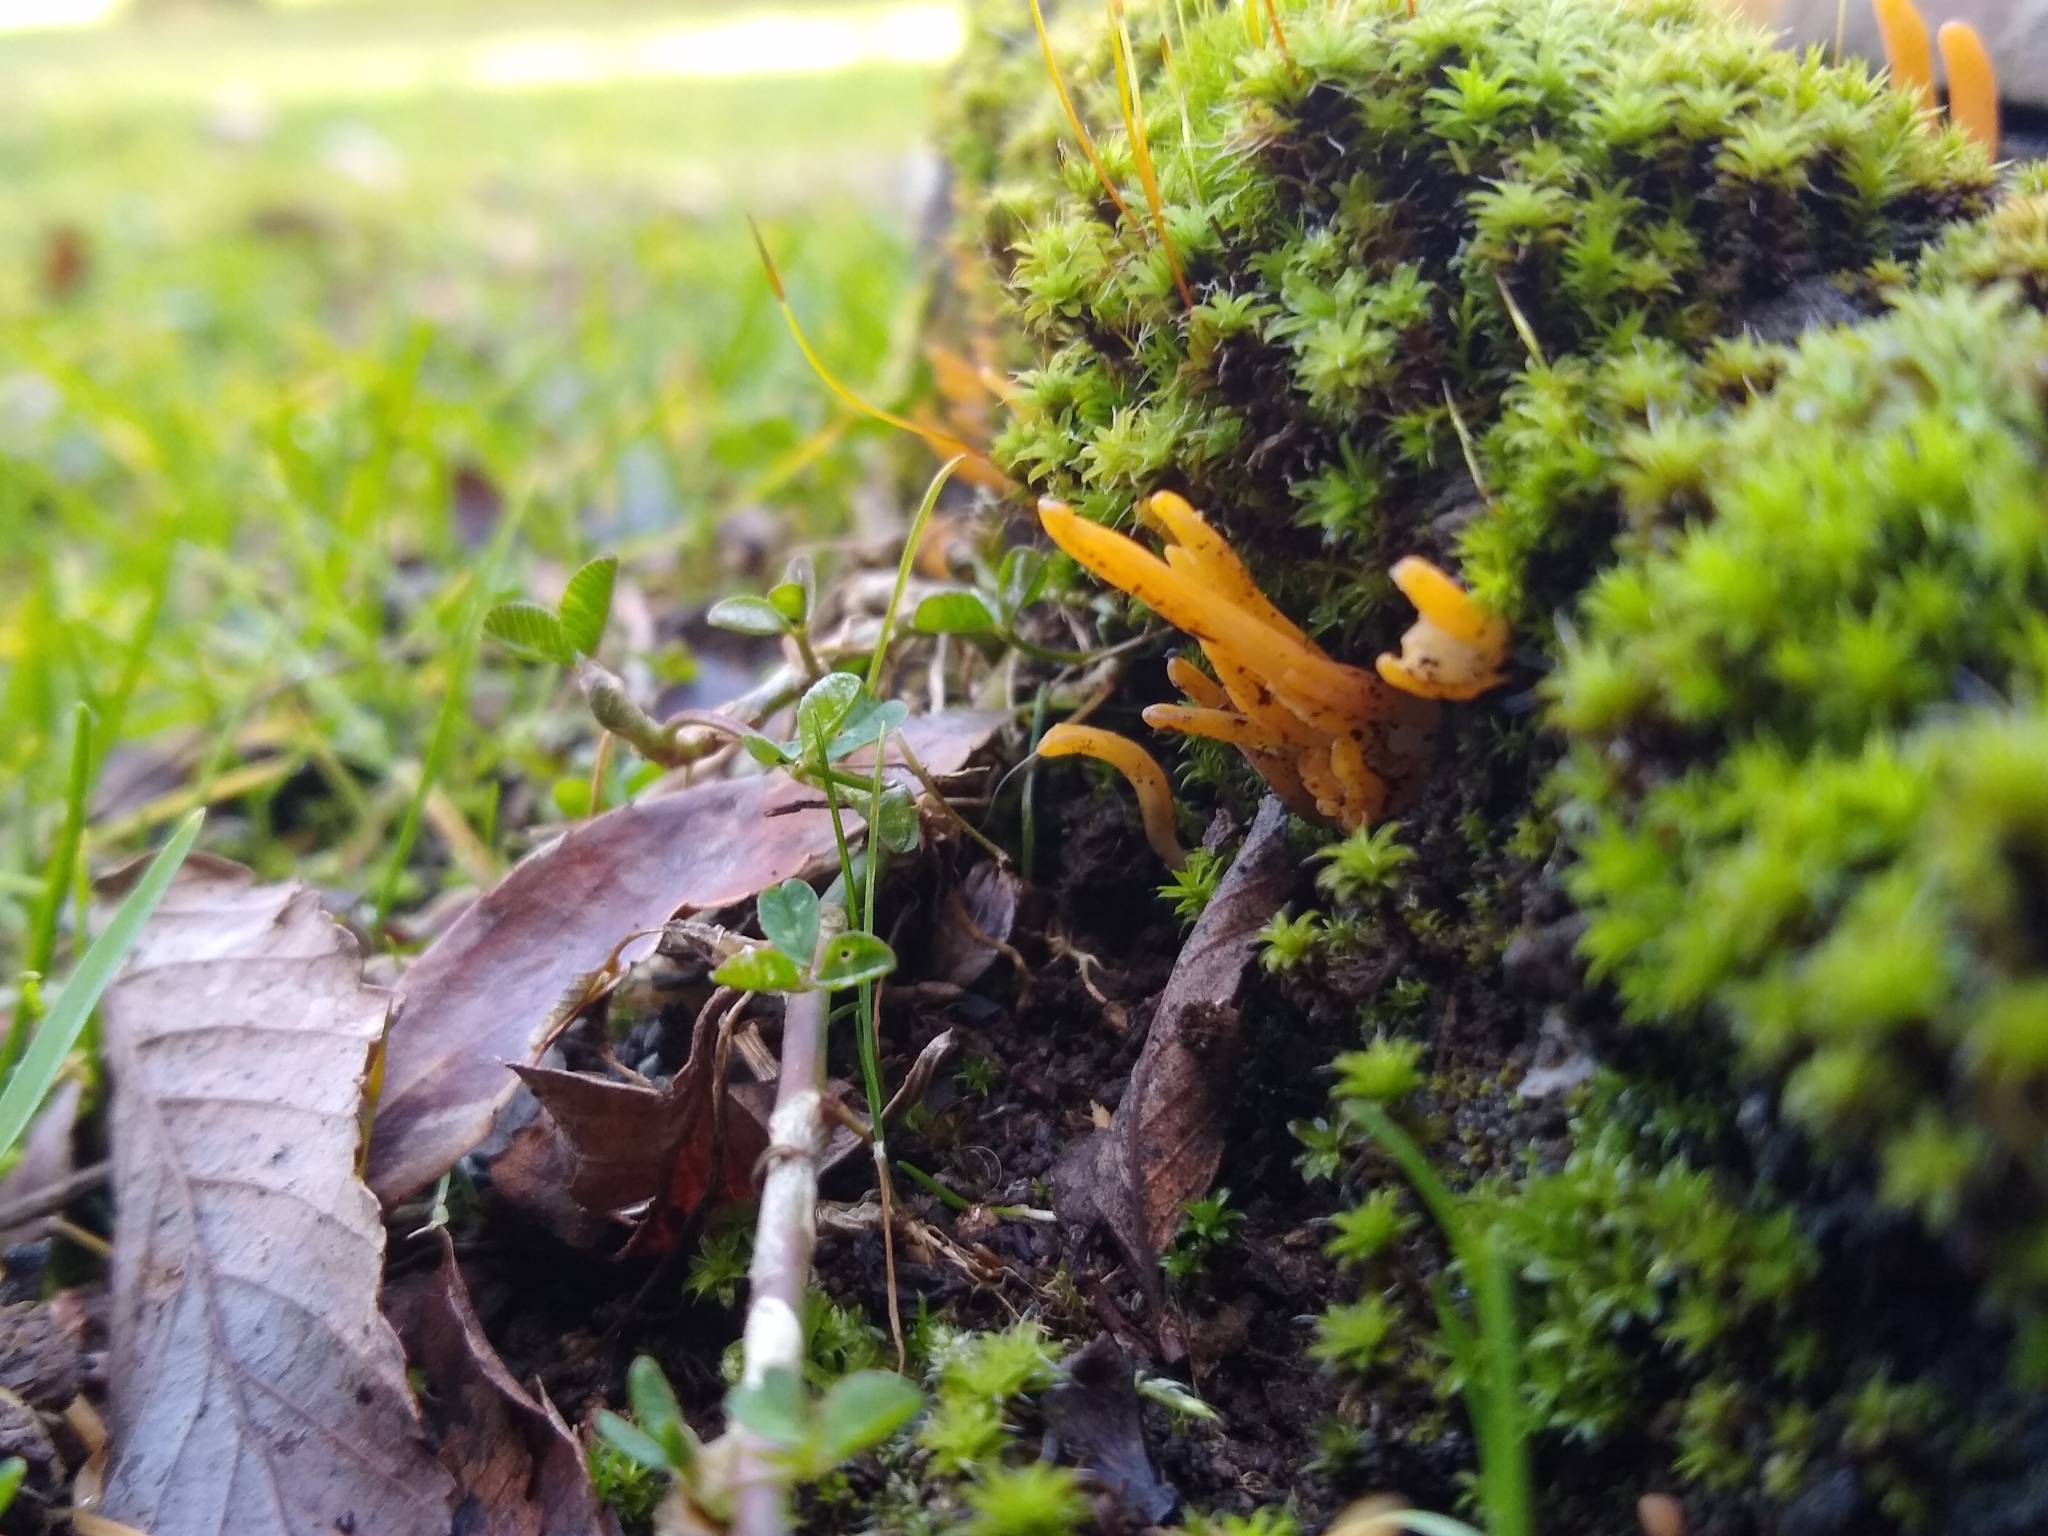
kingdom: Fungi
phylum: Basidiomycota
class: Dacrymycetes
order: Dacrymycetales
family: Dacrymycetaceae
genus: Calocera
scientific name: Calocera cornea
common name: Small stagshorn
